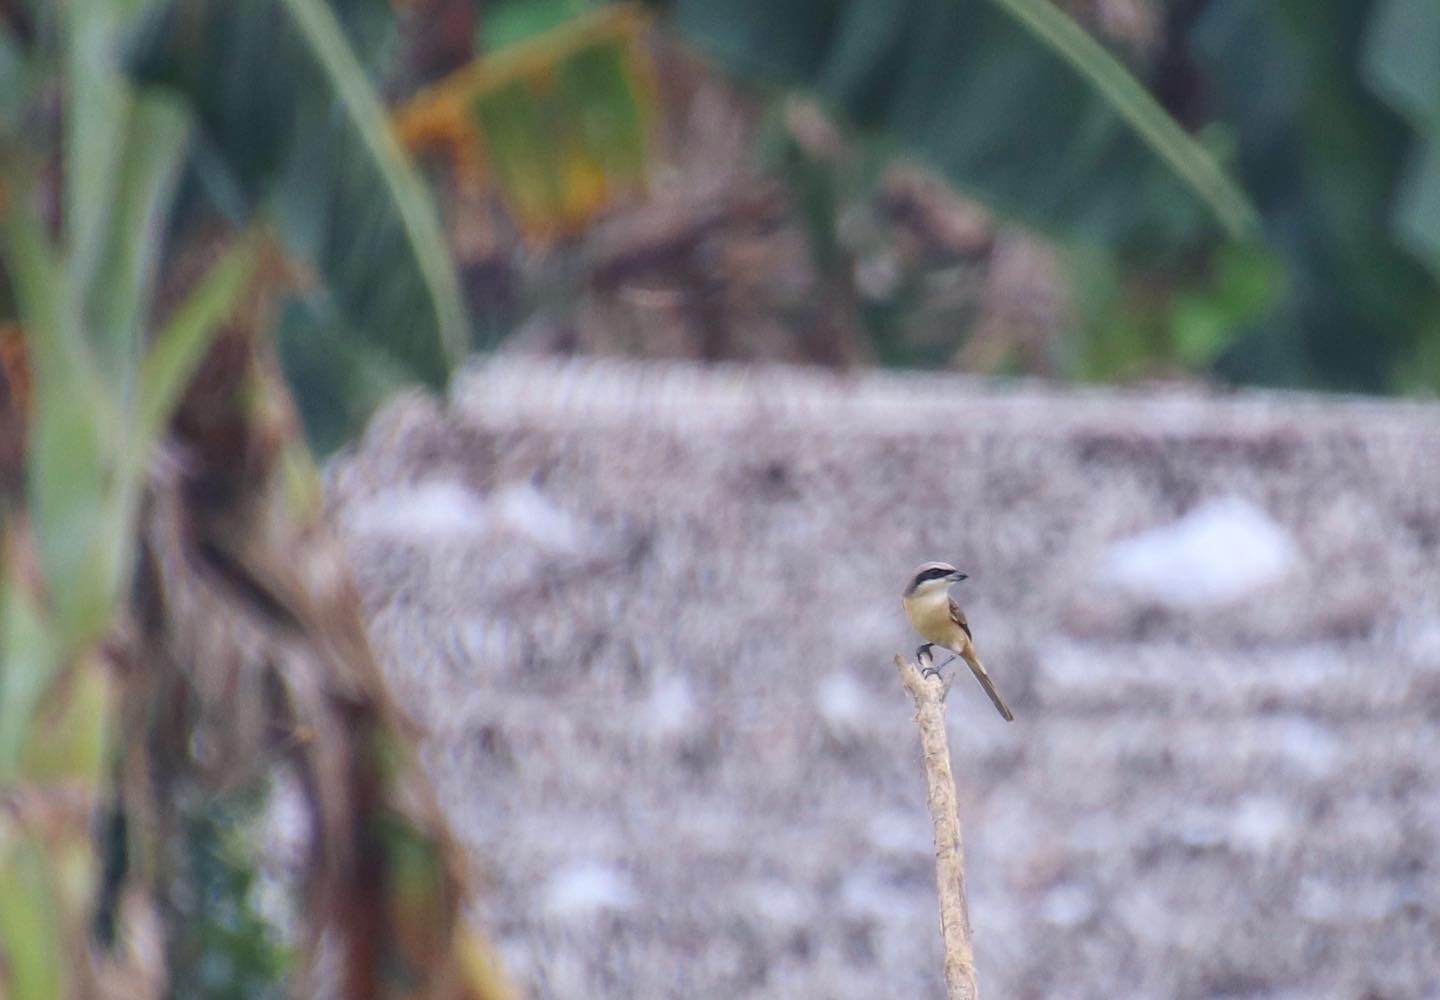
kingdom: Animalia
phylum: Chordata
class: Aves
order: Passeriformes
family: Laniidae
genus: Lanius
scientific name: Lanius cristatus
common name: Brown shrike
